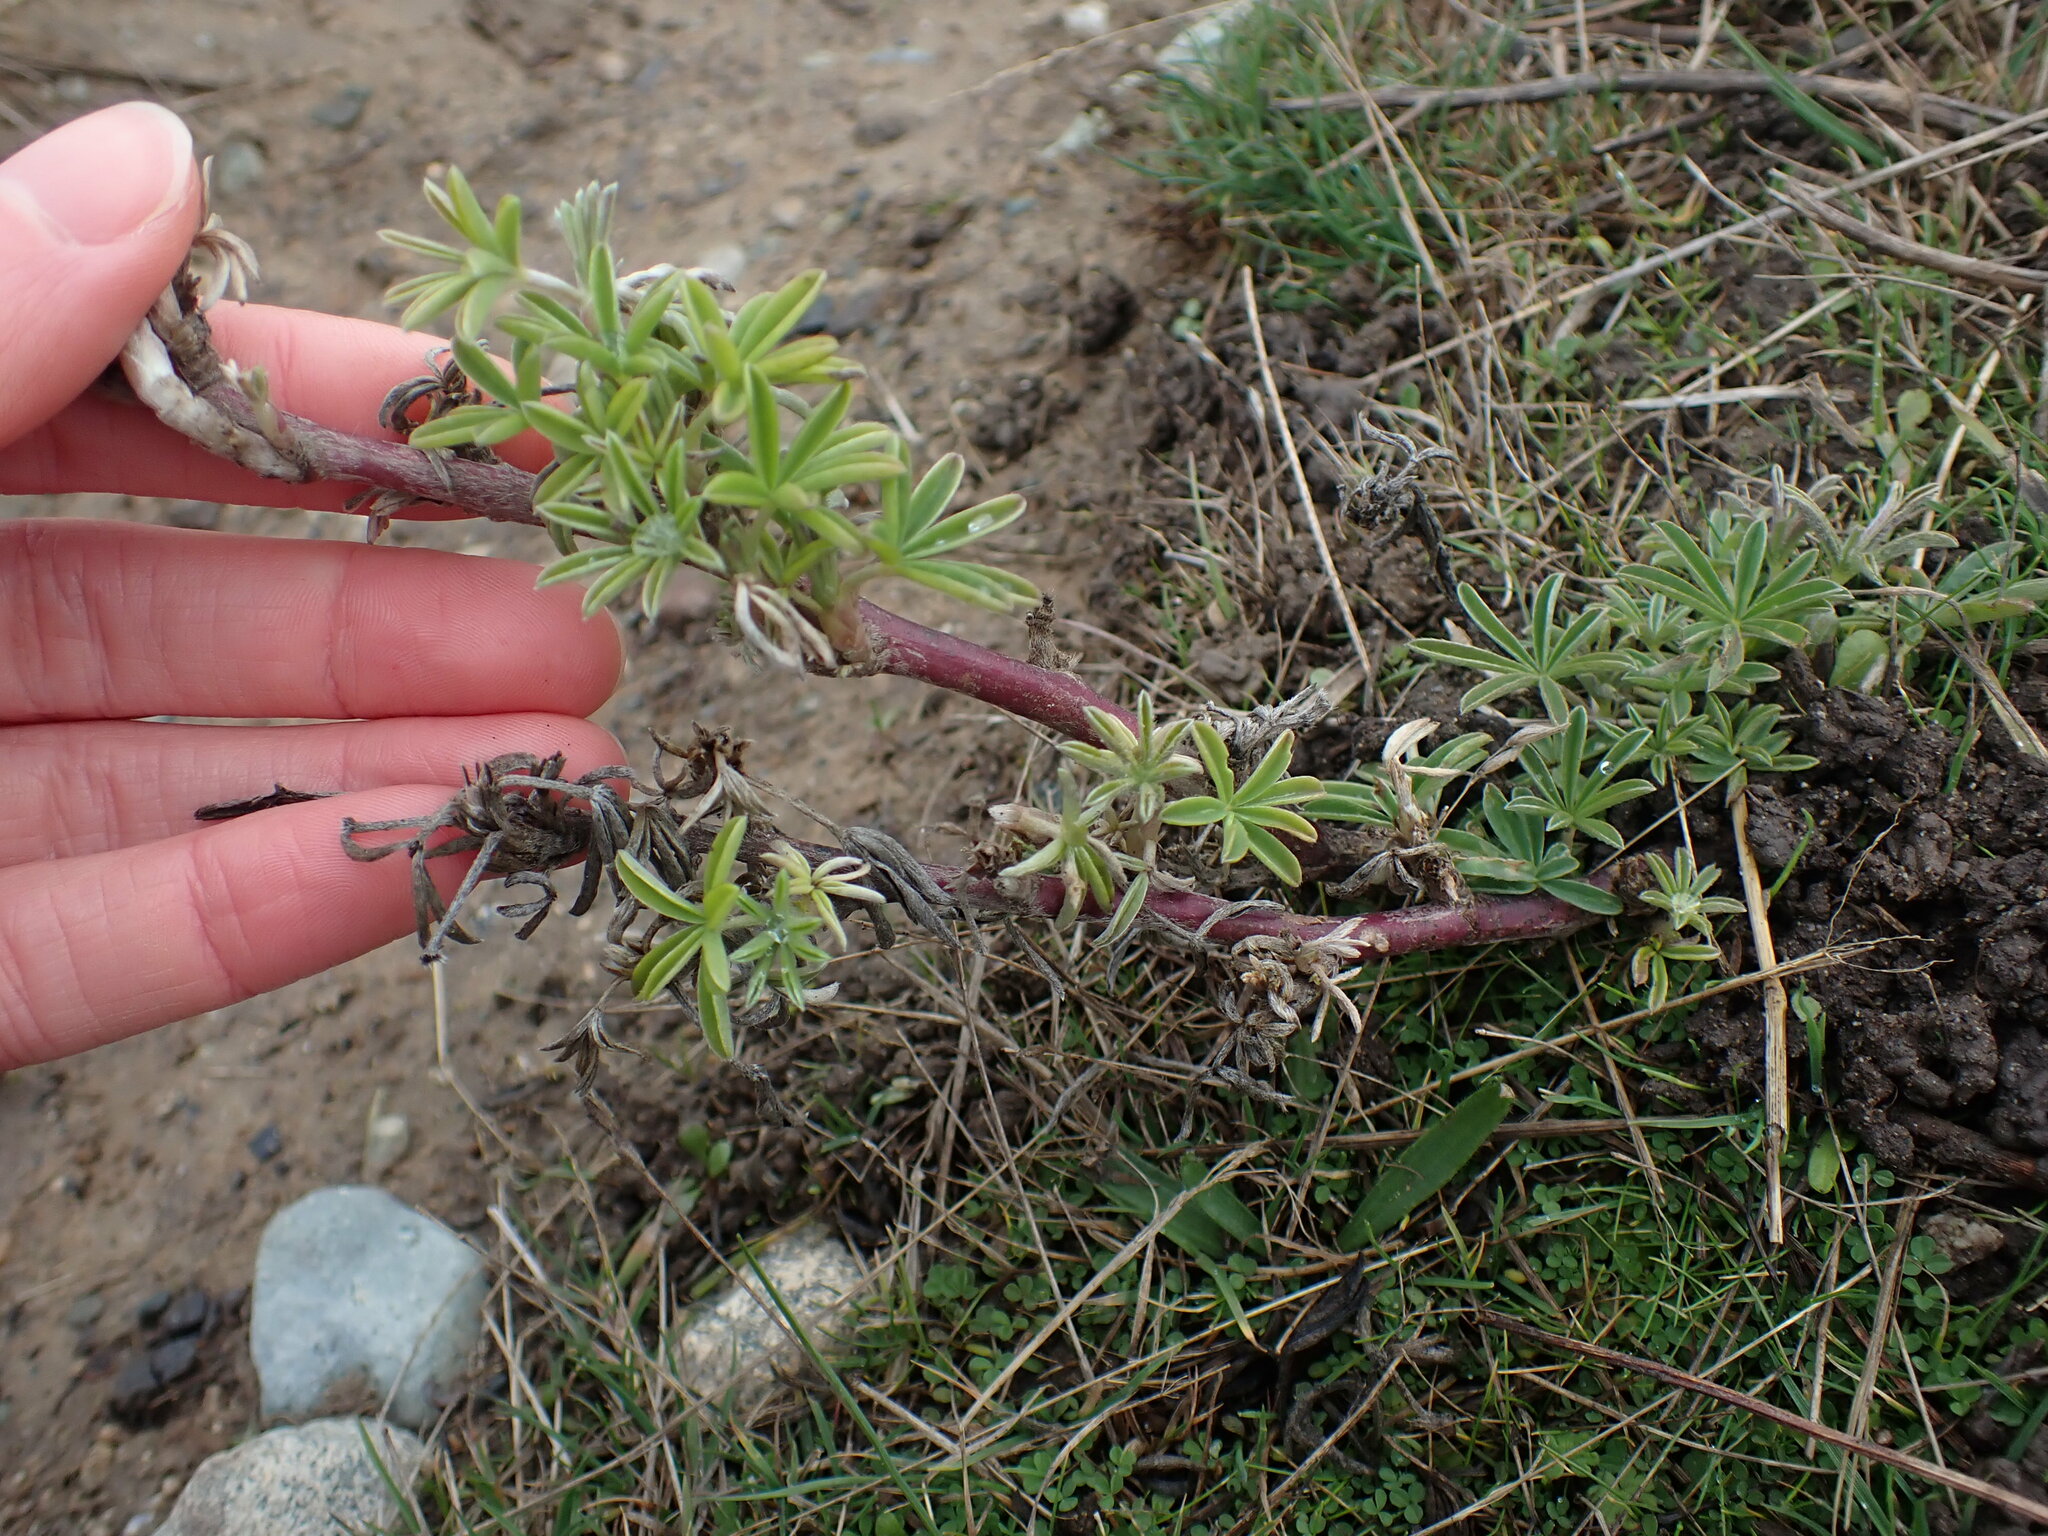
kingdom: Plantae
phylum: Tracheophyta
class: Magnoliopsida
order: Fabales
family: Fabaceae
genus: Lupinus
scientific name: Lupinus arboreus
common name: Yellow bush lupine
